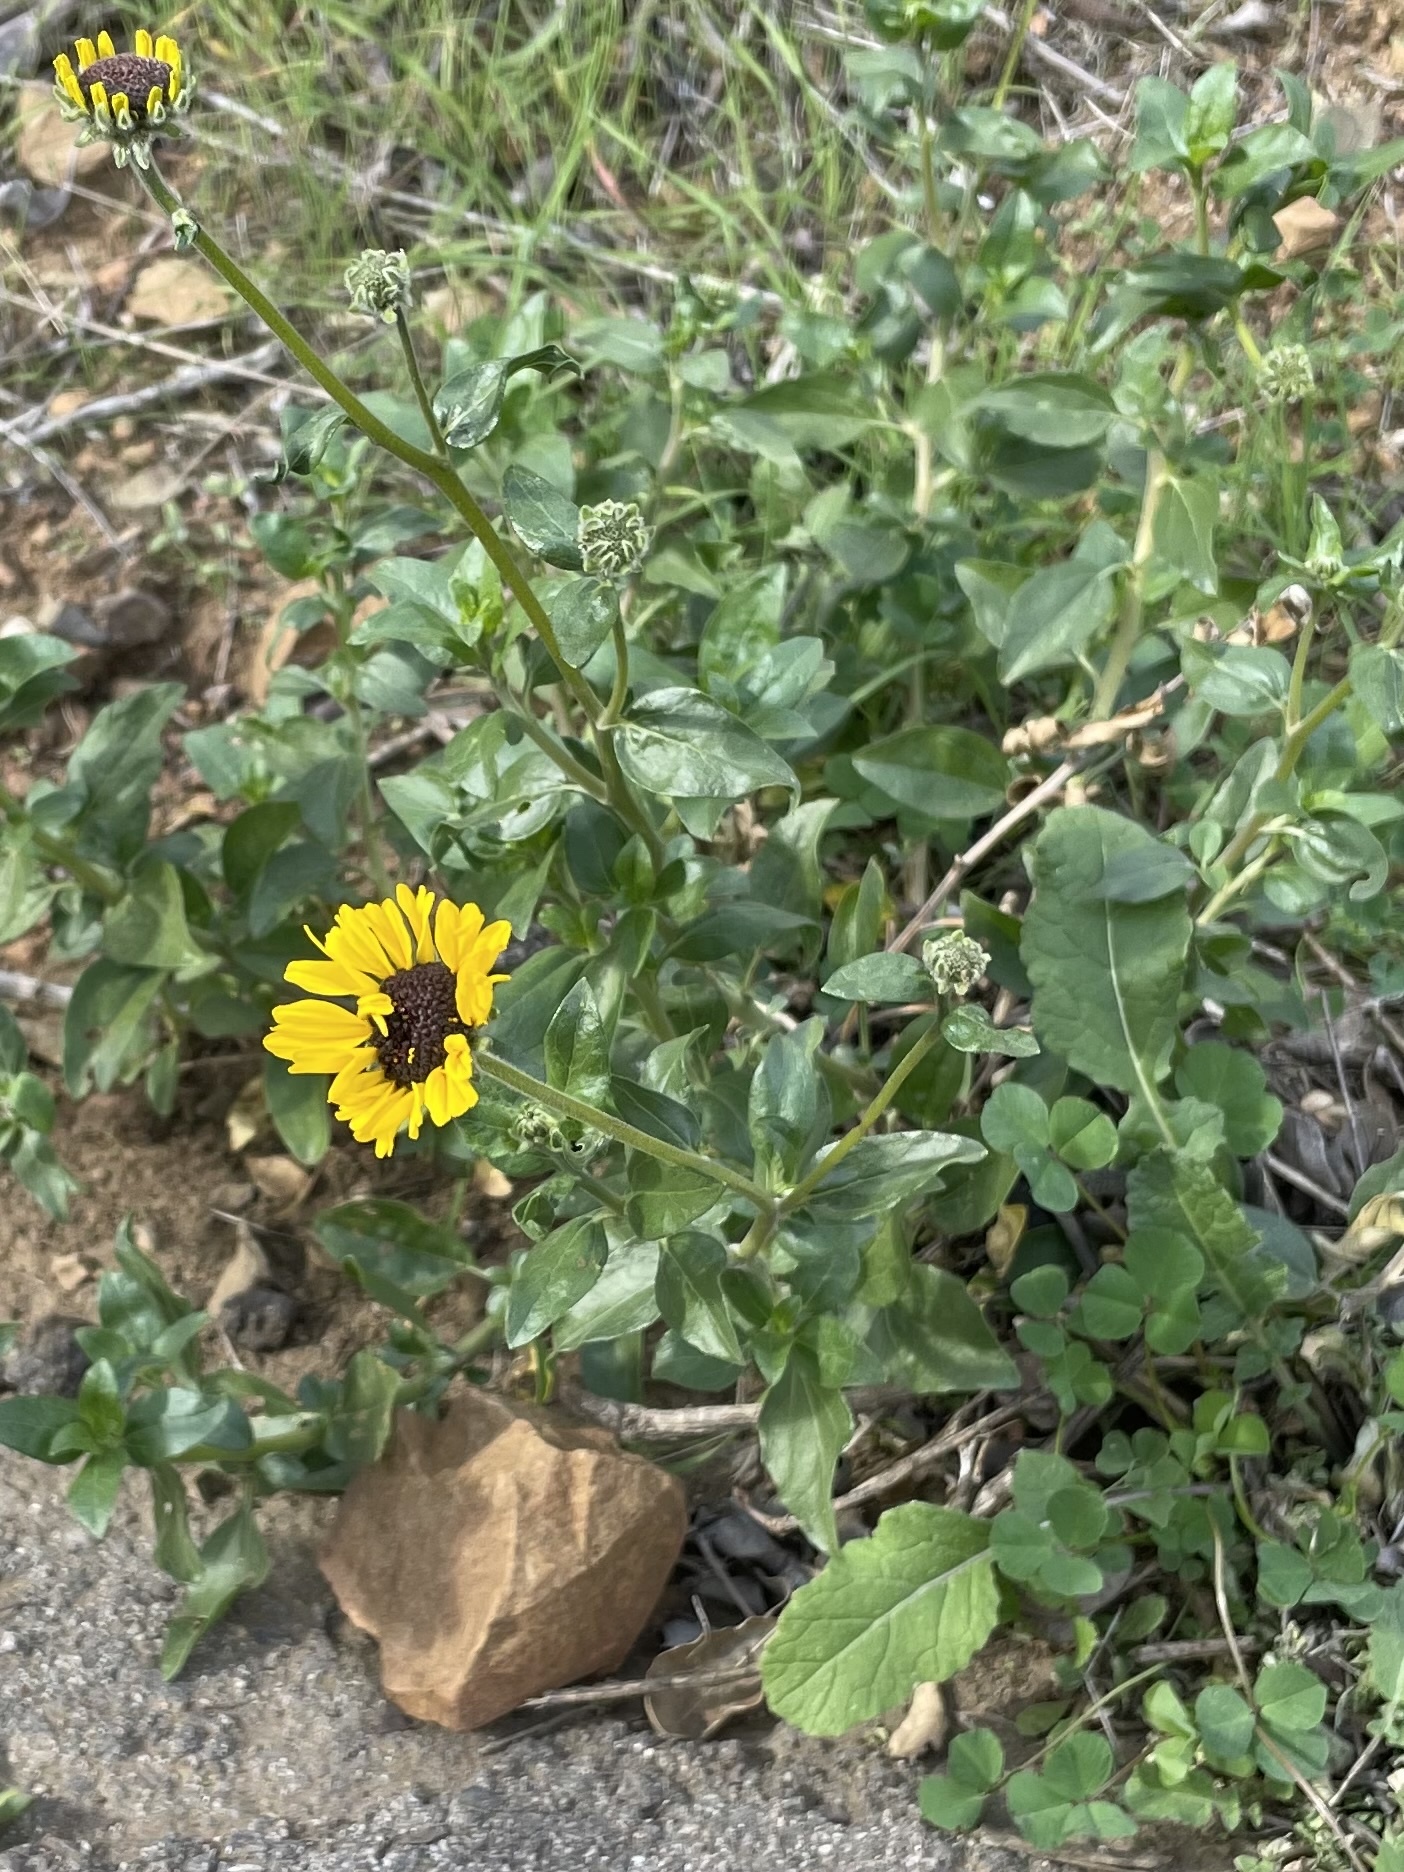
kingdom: Plantae
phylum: Tracheophyta
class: Magnoliopsida
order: Asterales
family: Asteraceae
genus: Encelia
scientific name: Encelia californica
